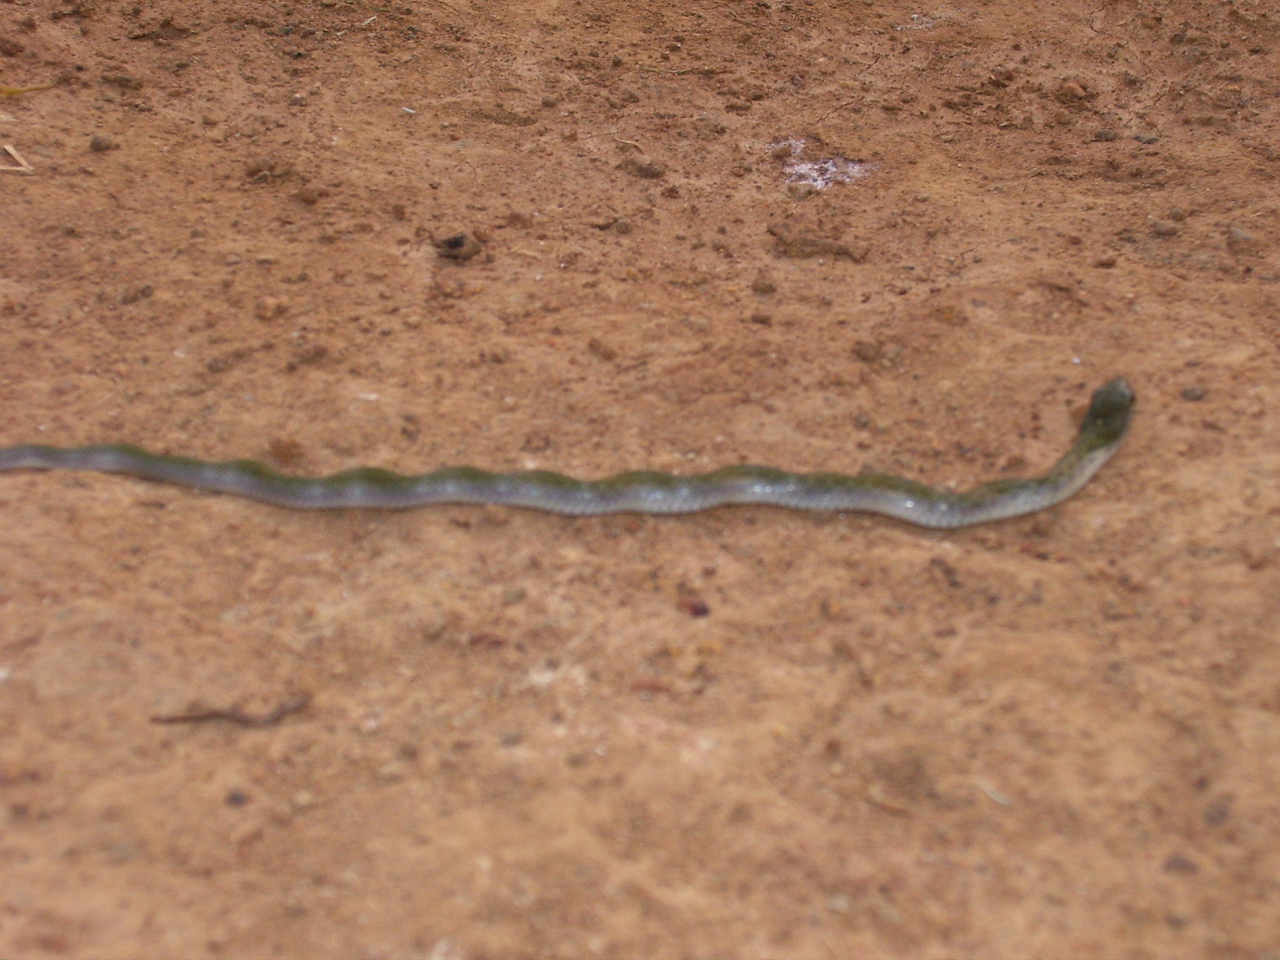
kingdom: Animalia
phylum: Chordata
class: Squamata
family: Colubridae
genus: Fowlea
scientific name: Fowlea piscator
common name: Asiatic water snake
